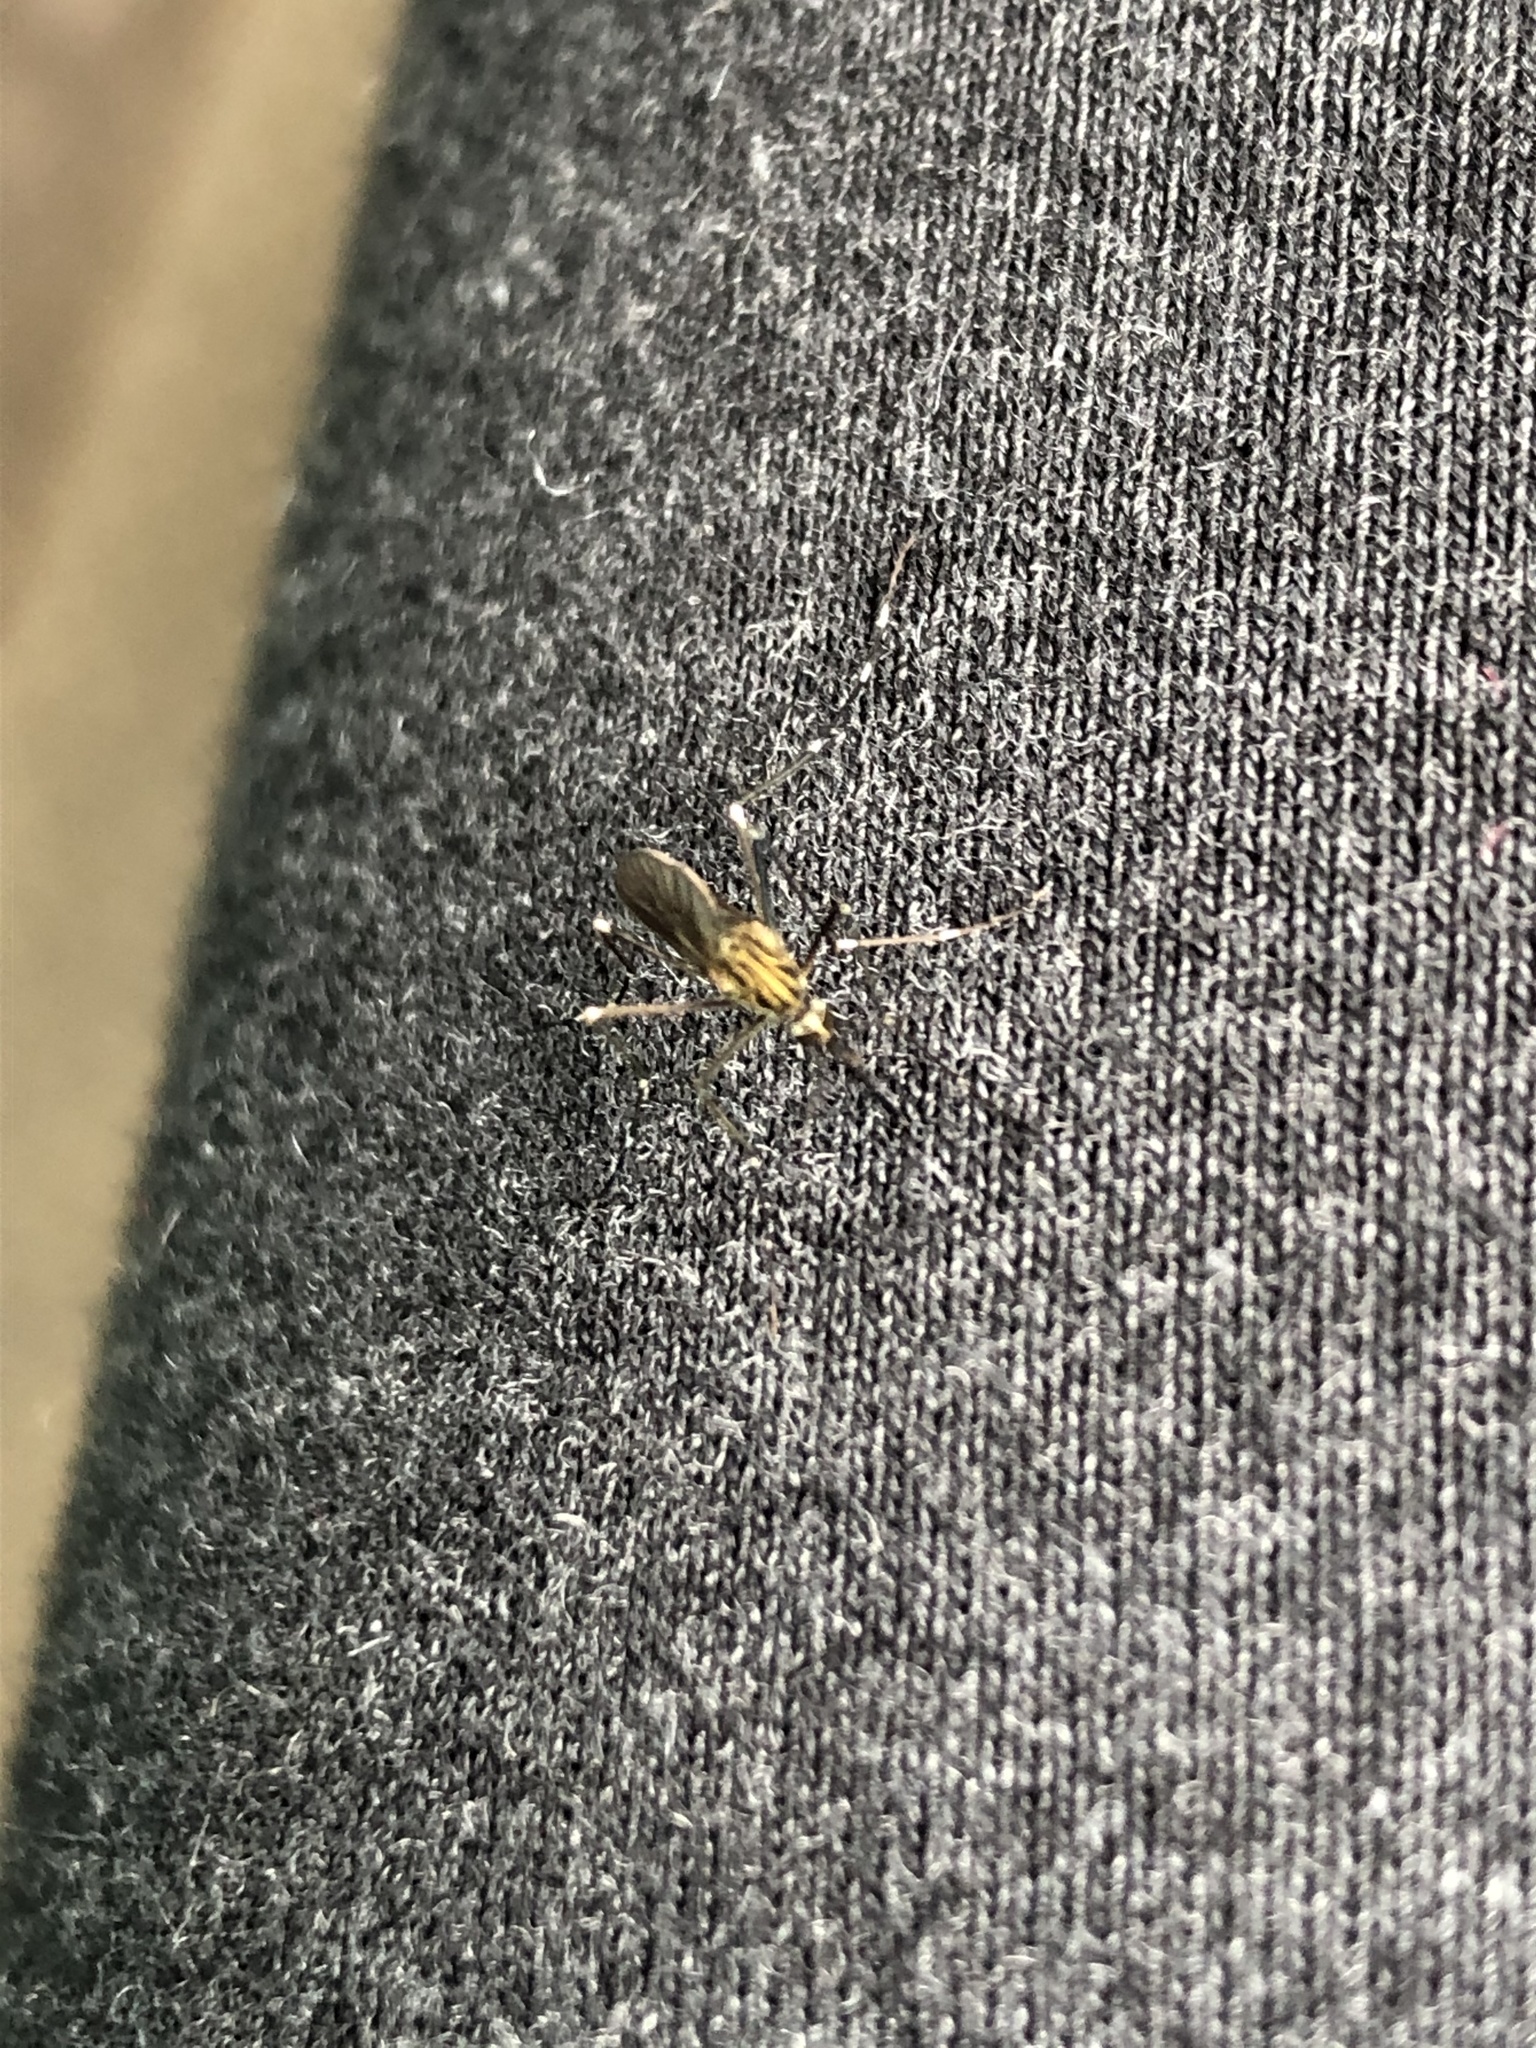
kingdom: Animalia
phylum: Arthropoda
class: Insecta
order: Diptera
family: Culicidae
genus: Aedes
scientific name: Aedes japonicus
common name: Asian bush mosquito
